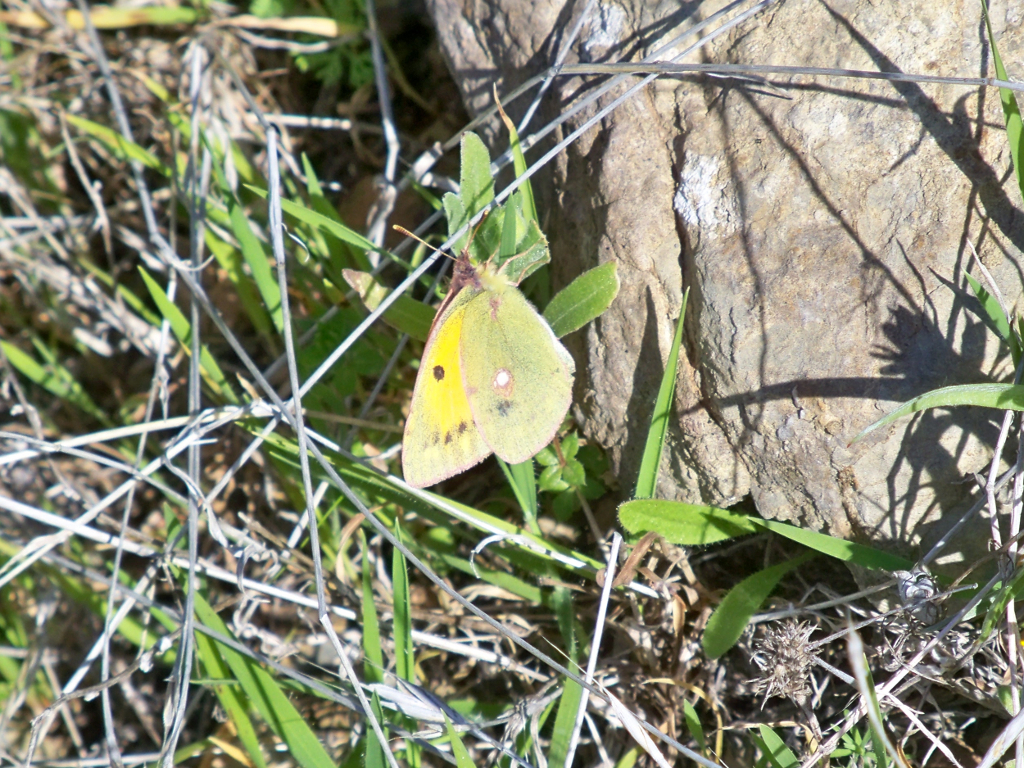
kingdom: Animalia
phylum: Arthropoda
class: Insecta
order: Lepidoptera
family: Pieridae
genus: Colias
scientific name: Colias croceus
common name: Clouded yellow
